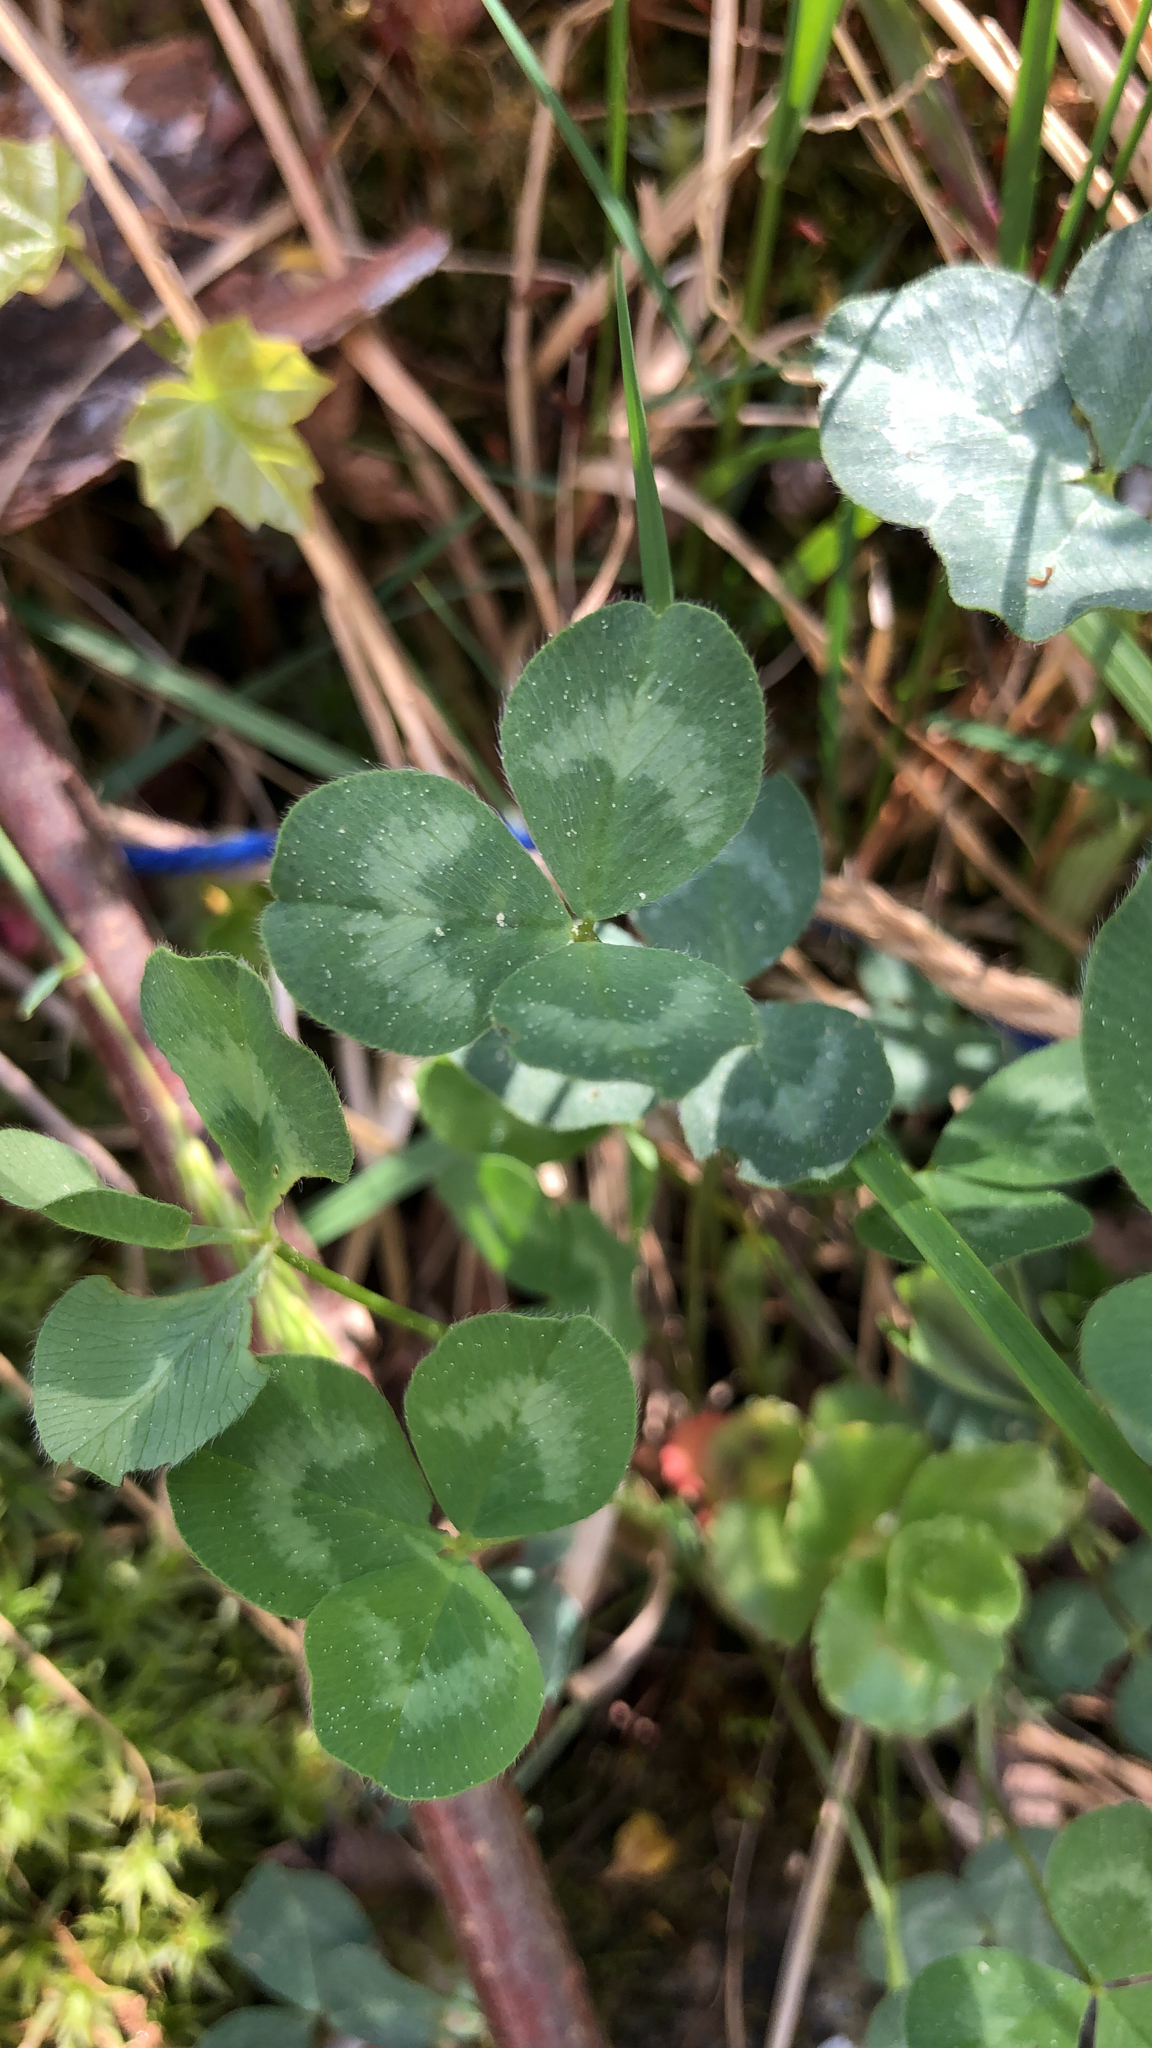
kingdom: Plantae
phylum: Tracheophyta
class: Magnoliopsida
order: Fabales
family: Fabaceae
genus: Trifolium
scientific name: Trifolium pratense
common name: Red clover
